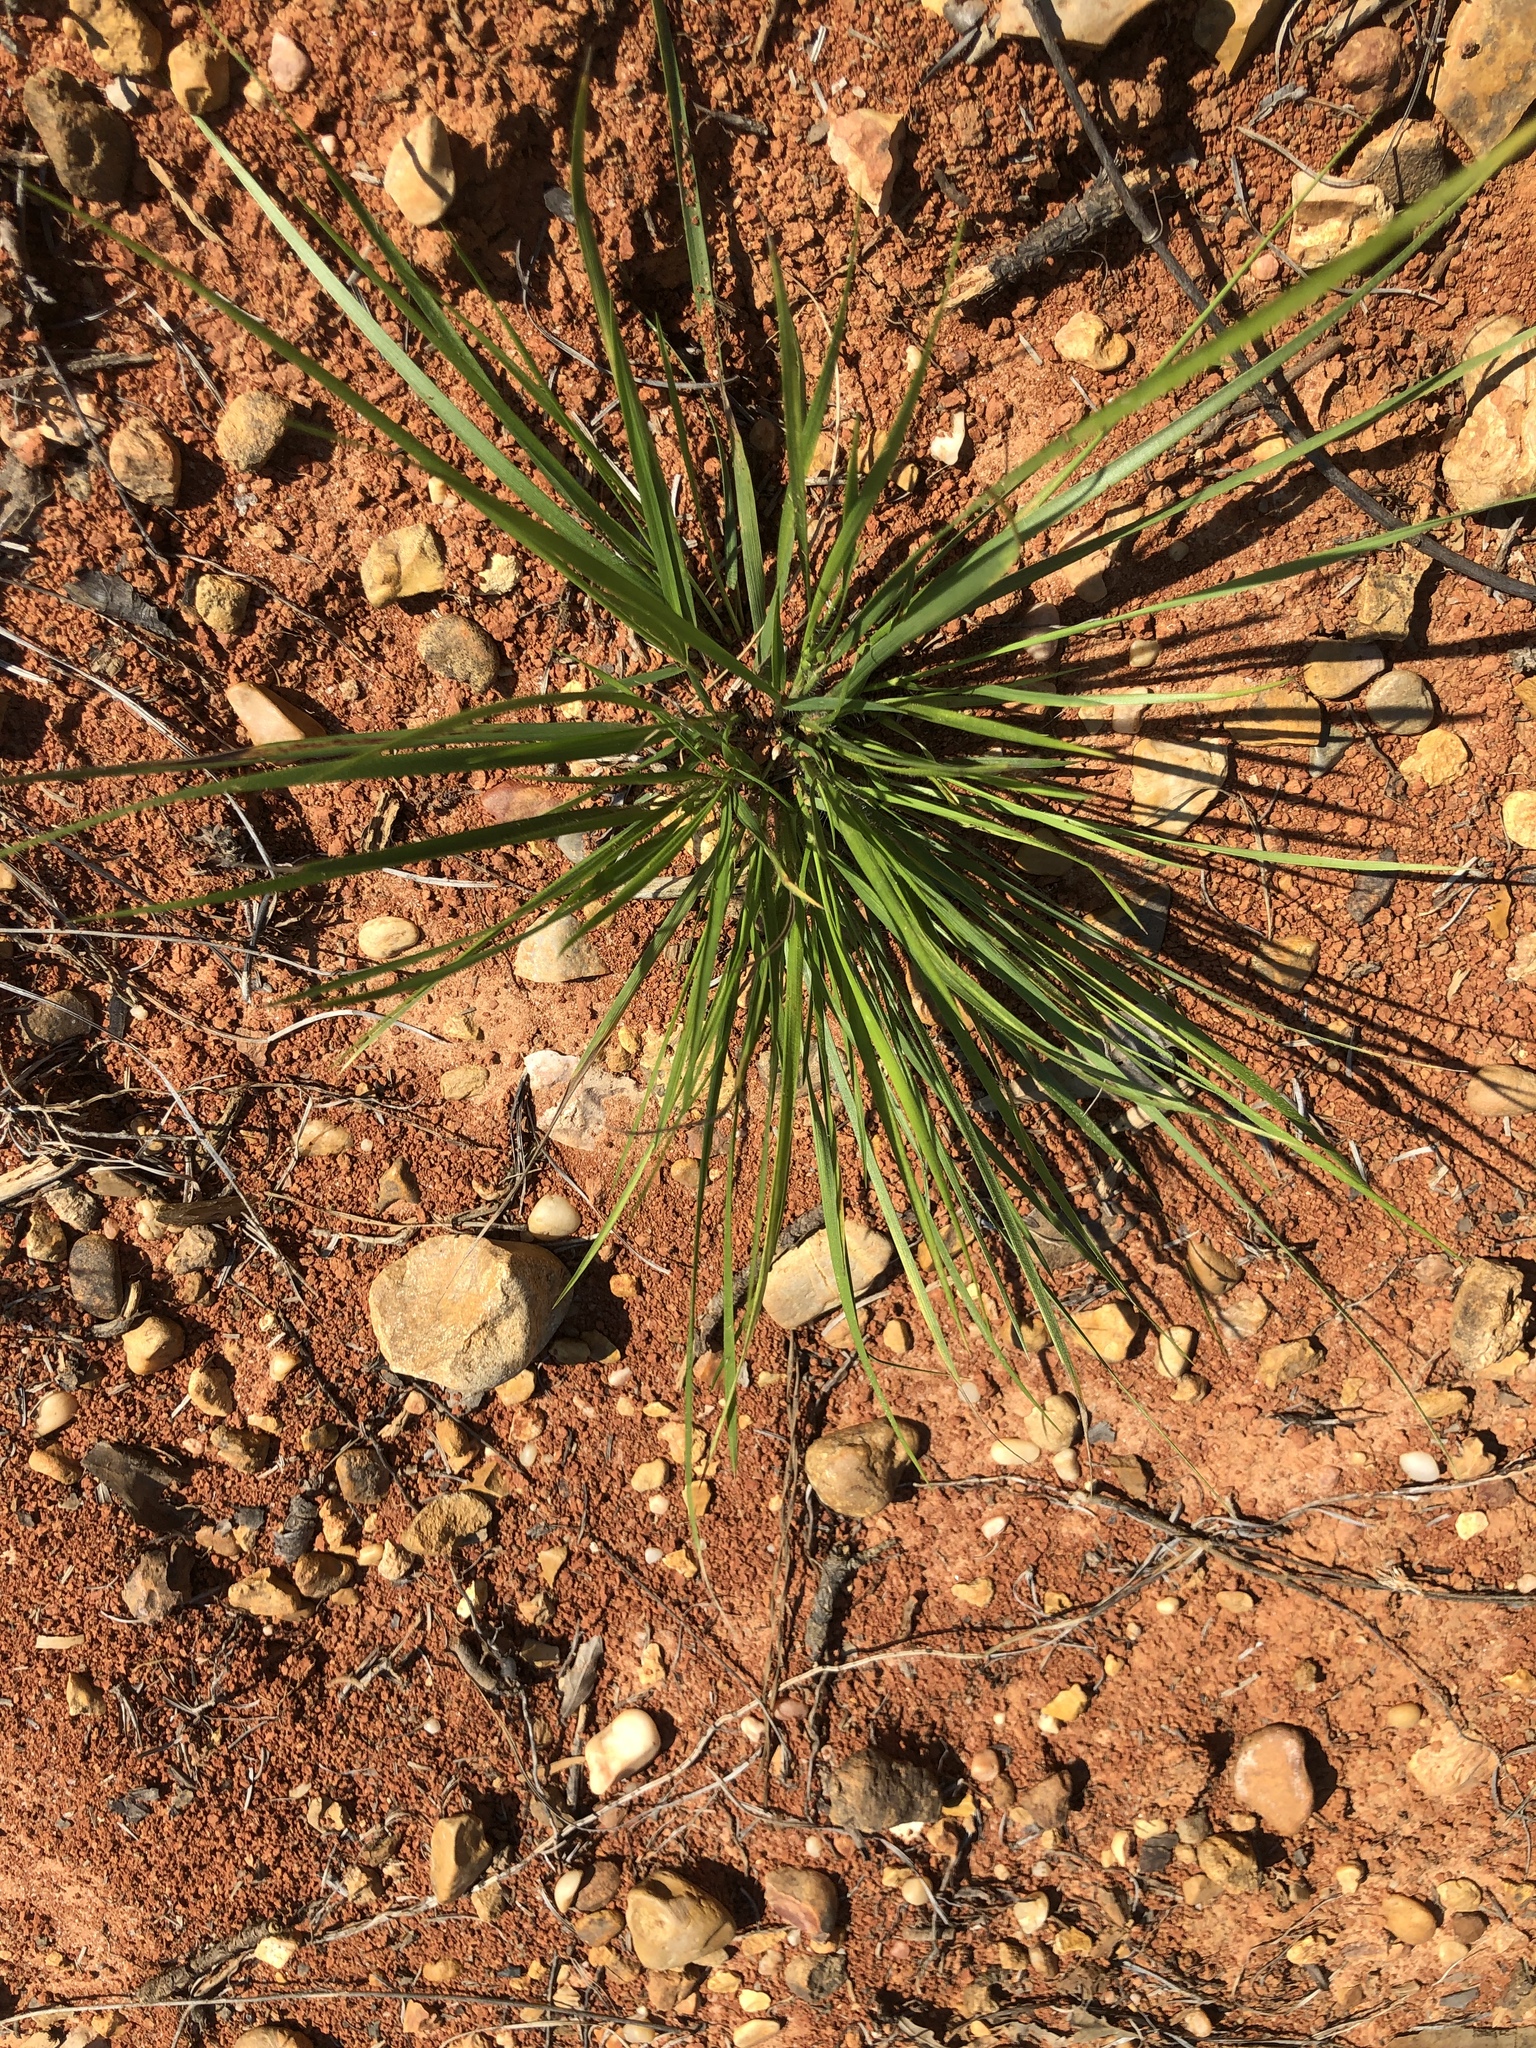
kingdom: Plantae
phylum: Tracheophyta
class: Liliopsida
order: Poales
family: Poaceae
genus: Dichanthelium
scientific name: Dichanthelium depauperatum
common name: Depauperate panicgrass
